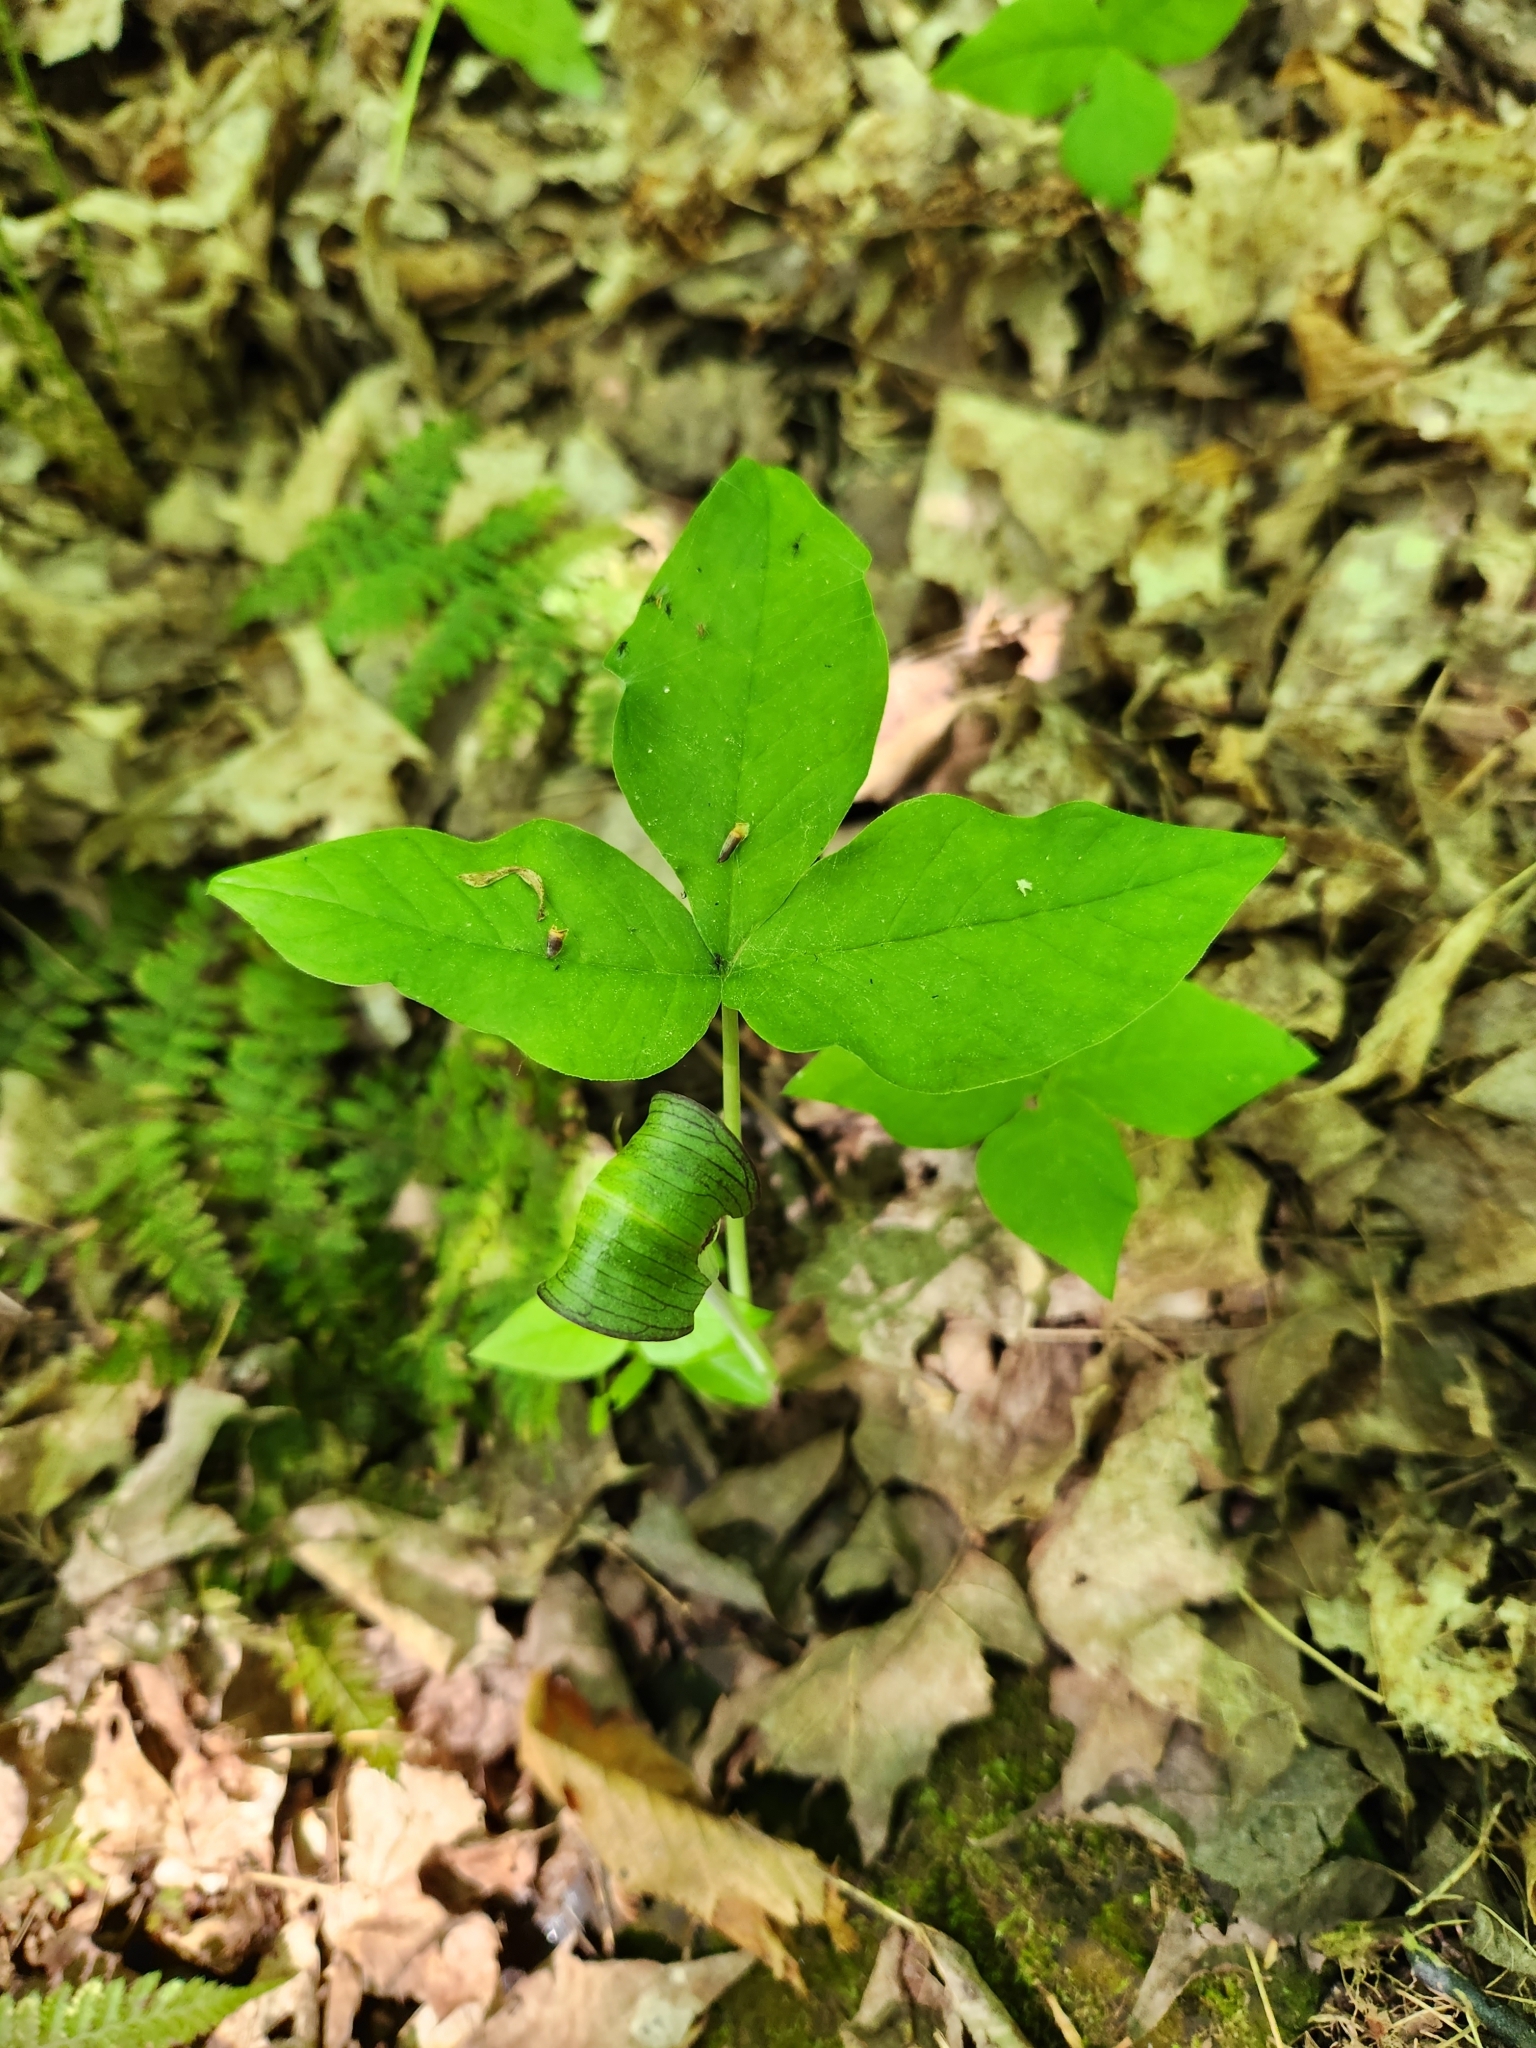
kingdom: Plantae
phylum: Tracheophyta
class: Liliopsida
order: Alismatales
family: Araceae
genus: Arisaema
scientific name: Arisaema triphyllum
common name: Jack-in-the-pulpit
